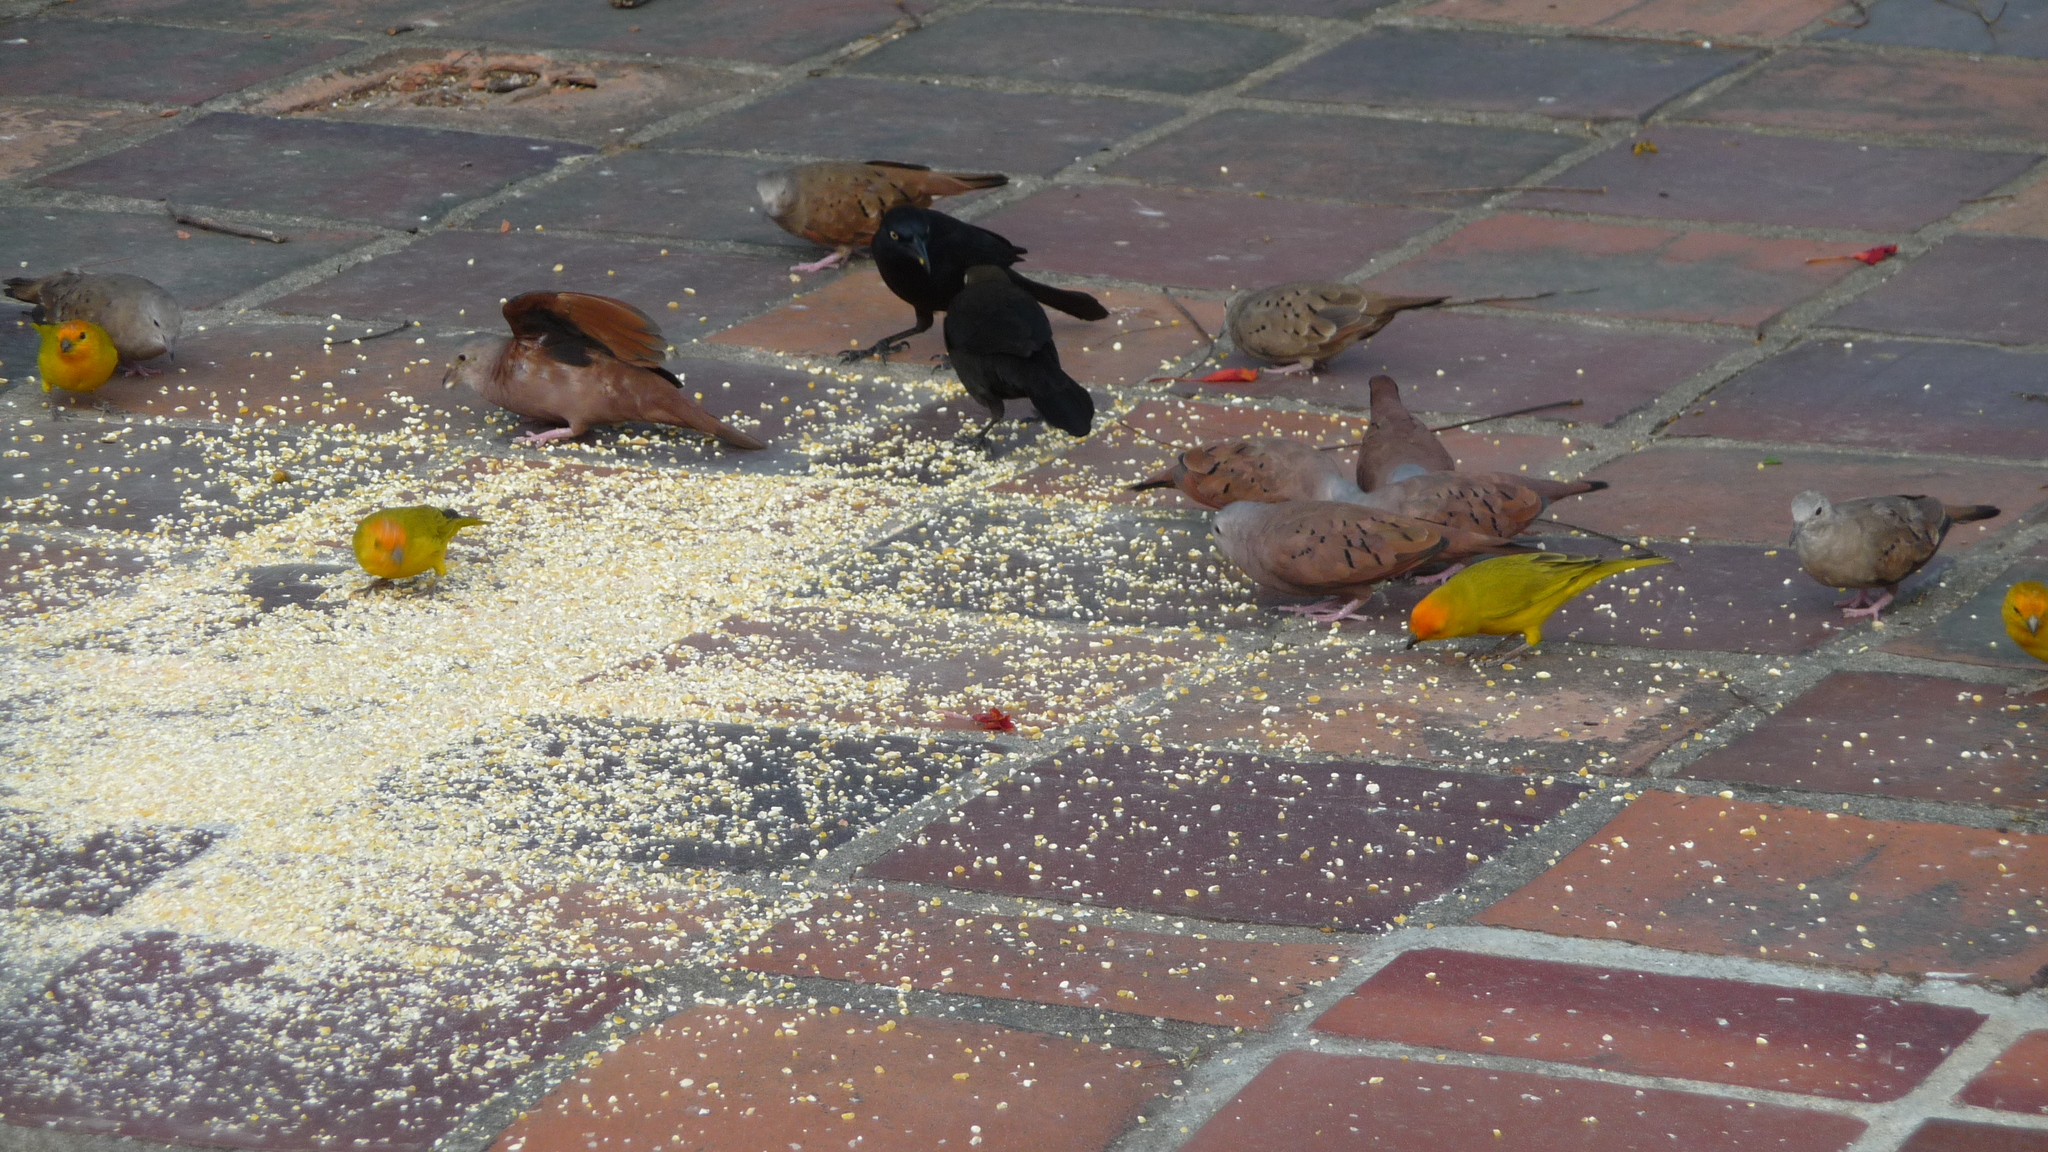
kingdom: Animalia
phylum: Chordata
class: Aves
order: Passeriformes
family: Icteridae
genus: Quiscalus
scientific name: Quiscalus lugubris
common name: Carib grackle
